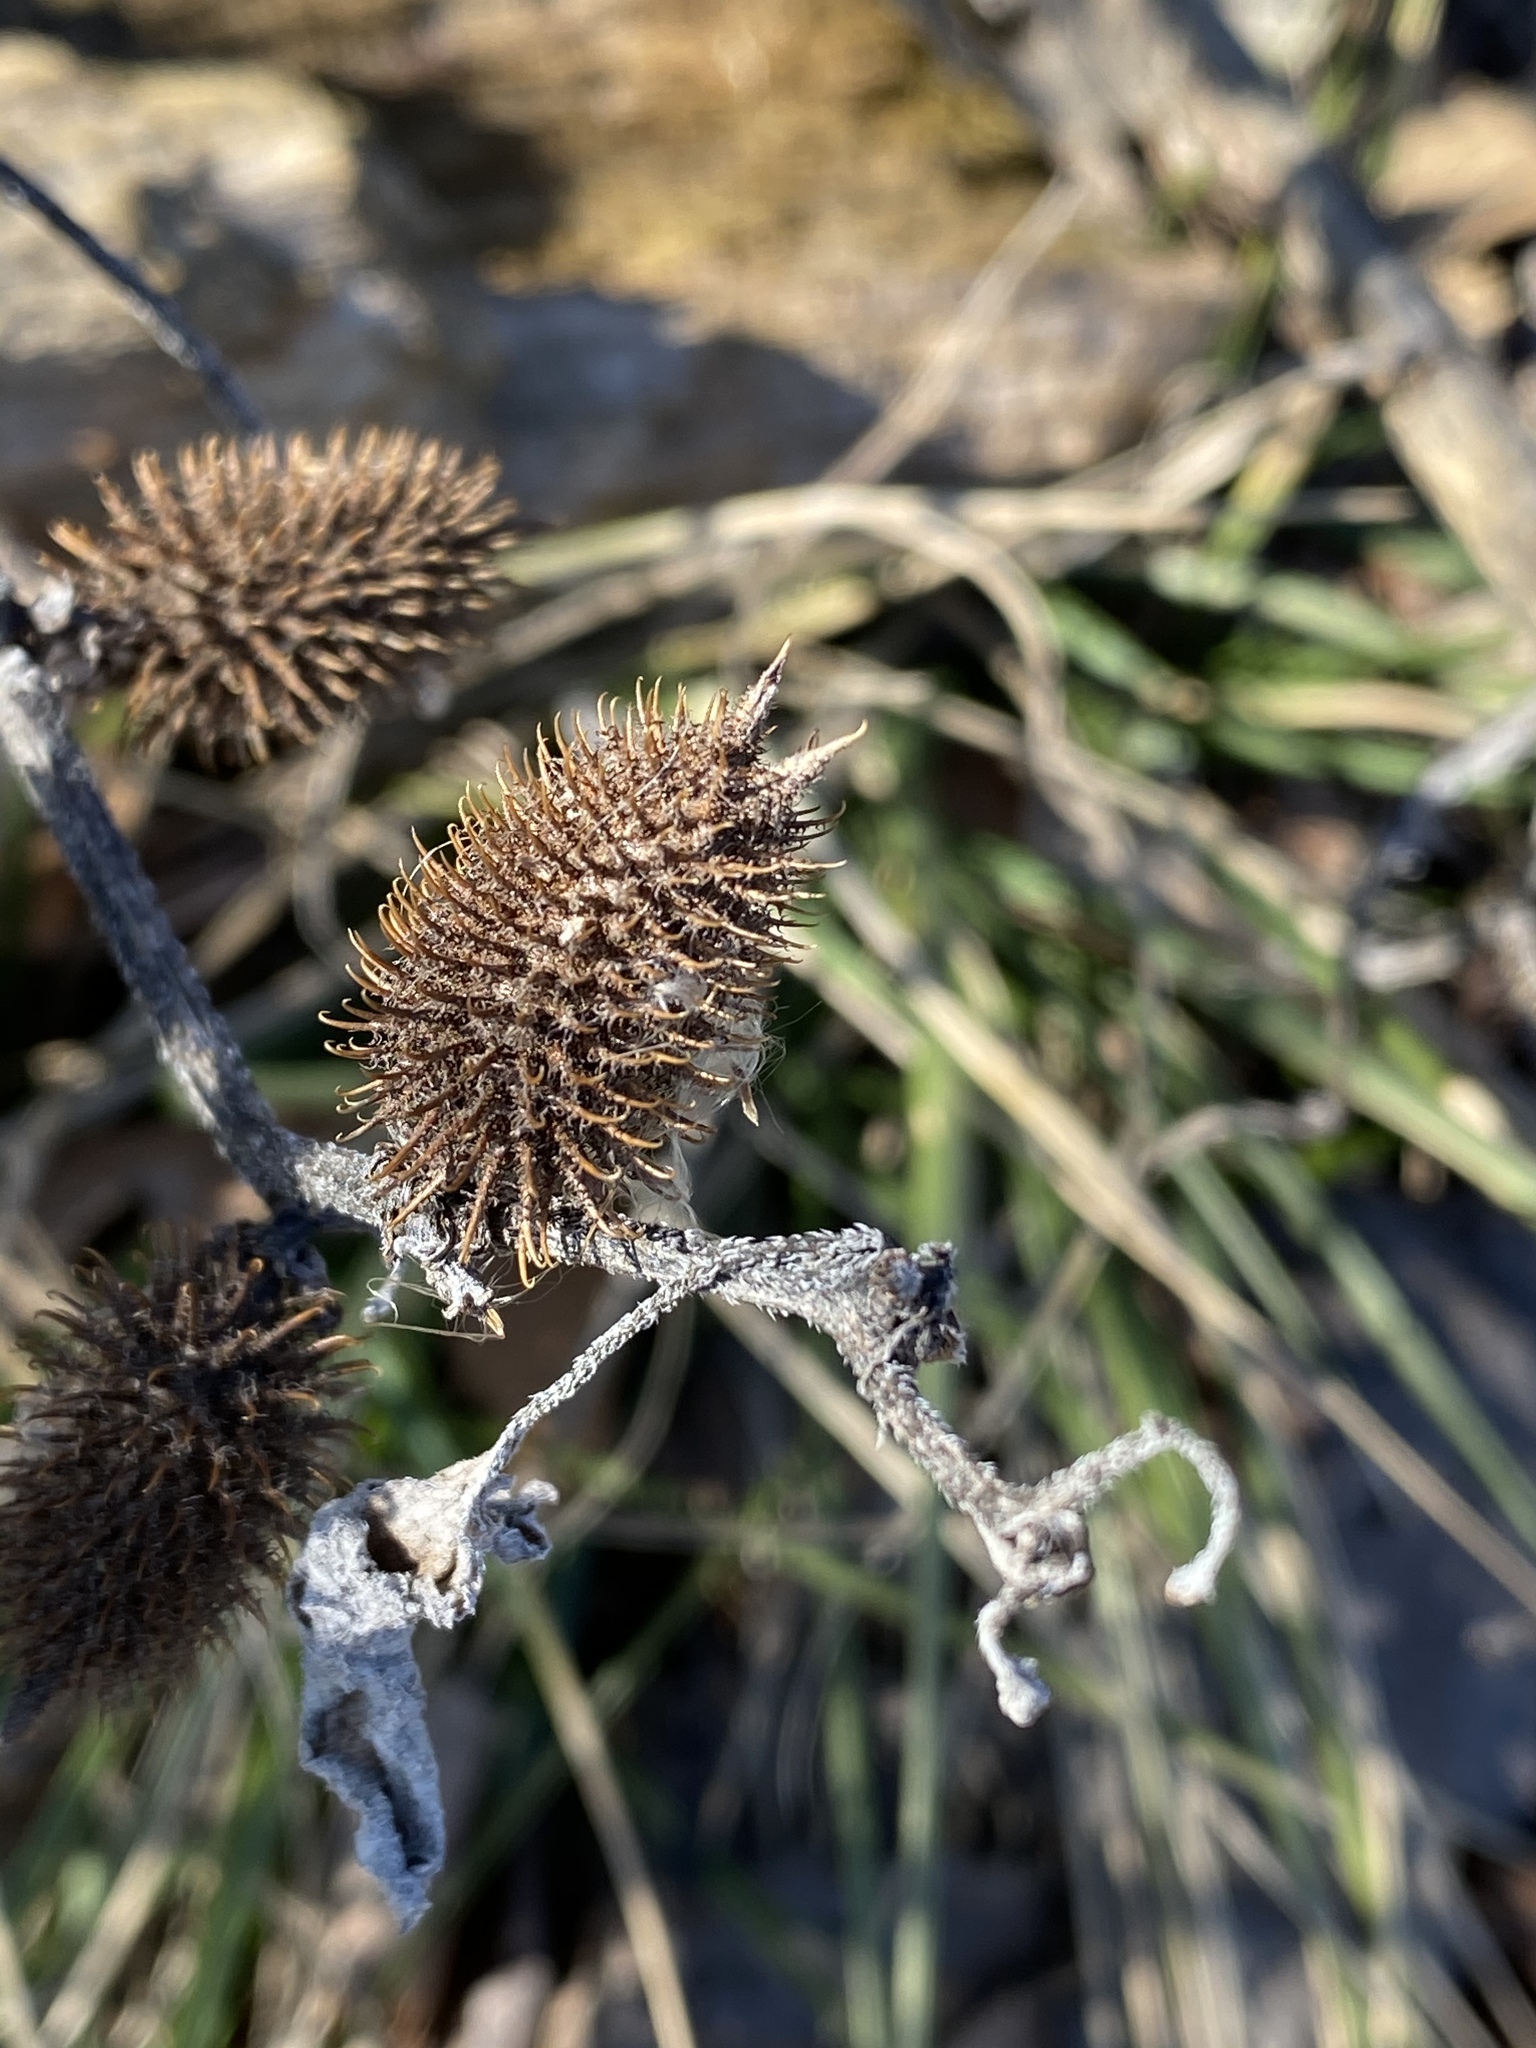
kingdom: Plantae
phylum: Tracheophyta
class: Magnoliopsida
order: Asterales
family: Asteraceae
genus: Xanthium
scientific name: Xanthium strumarium
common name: Rough cocklebur
